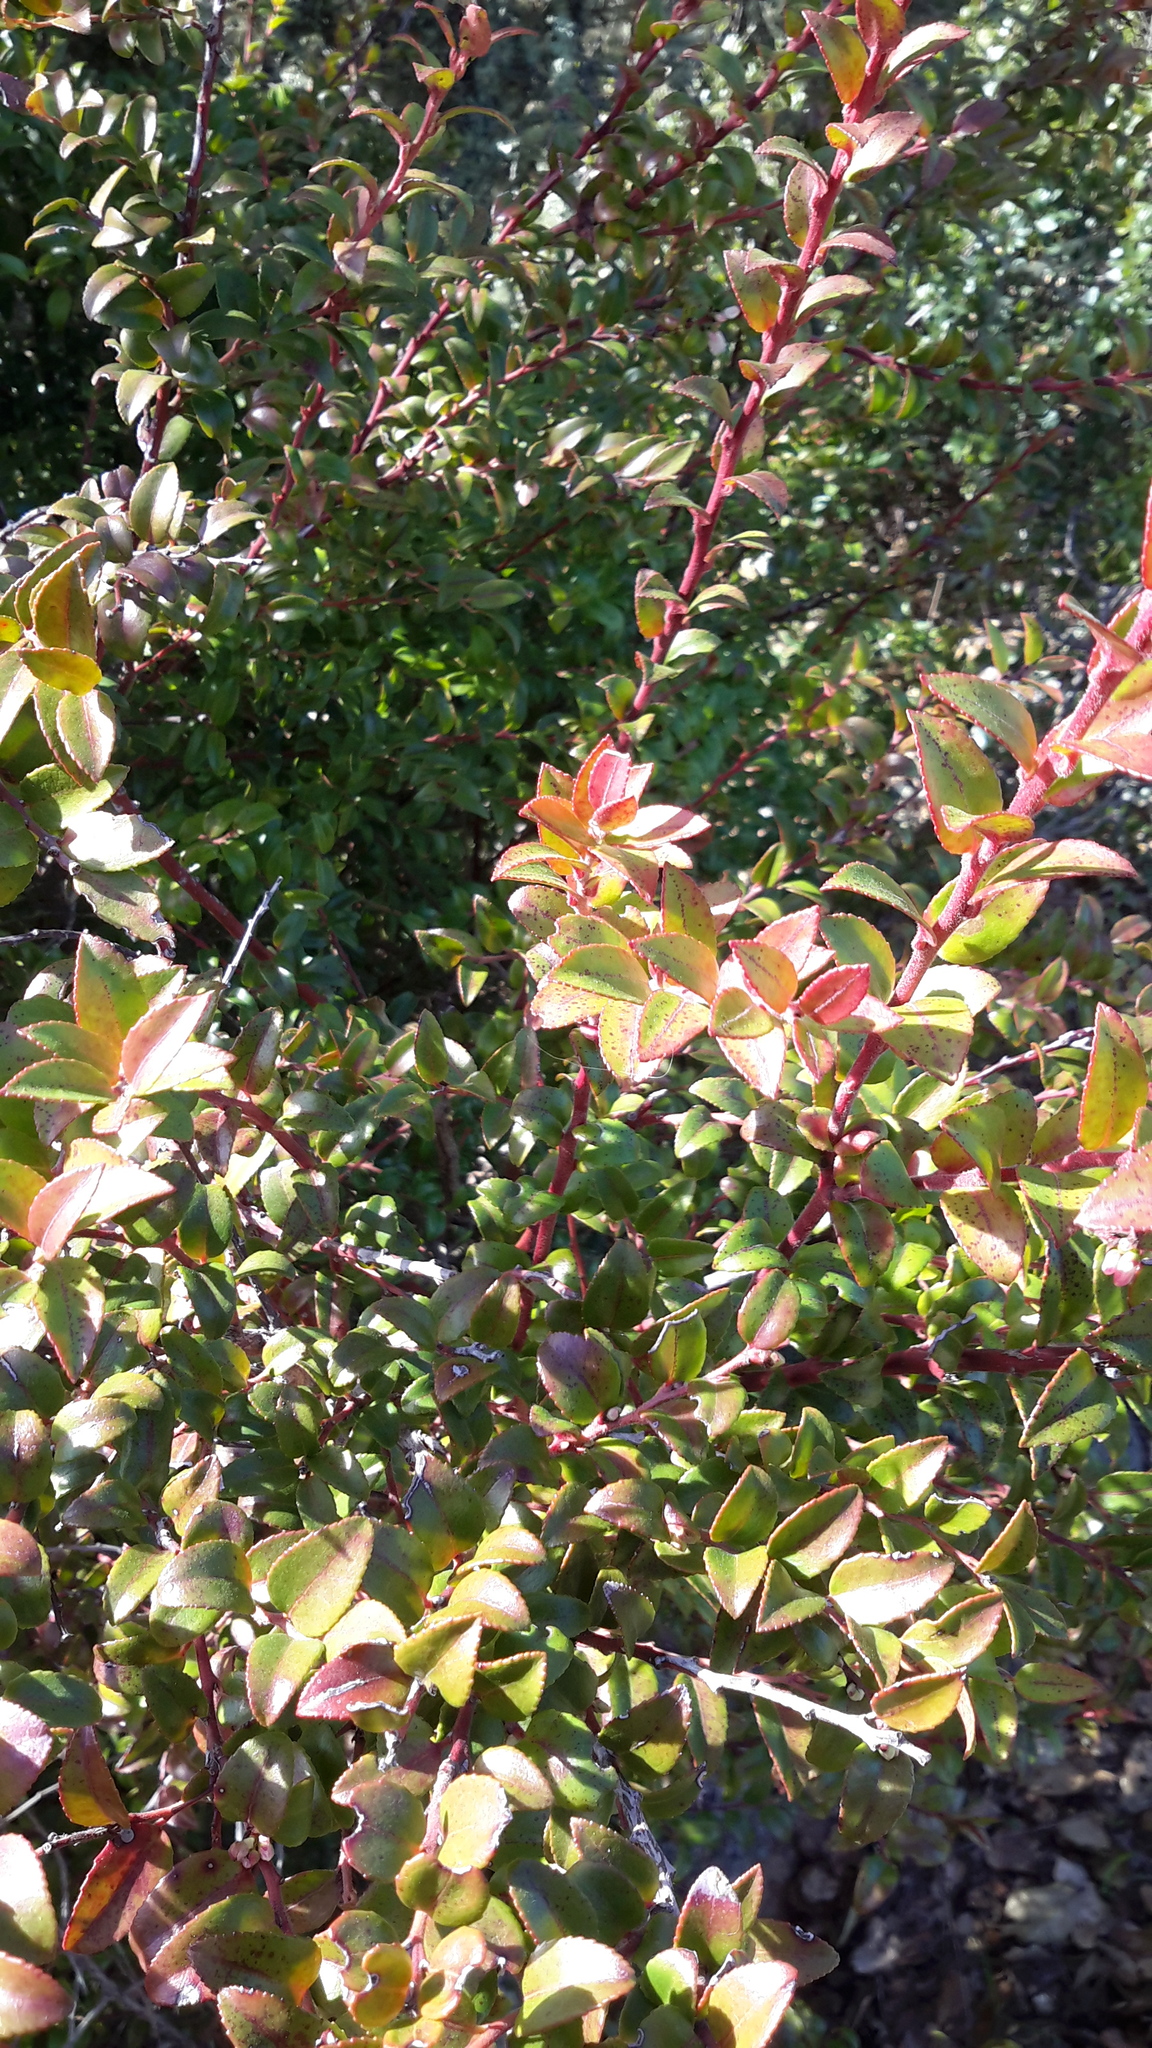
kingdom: Plantae
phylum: Tracheophyta
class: Magnoliopsida
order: Ericales
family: Ericaceae
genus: Vaccinium
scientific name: Vaccinium ovatum
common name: California-huckleberry
